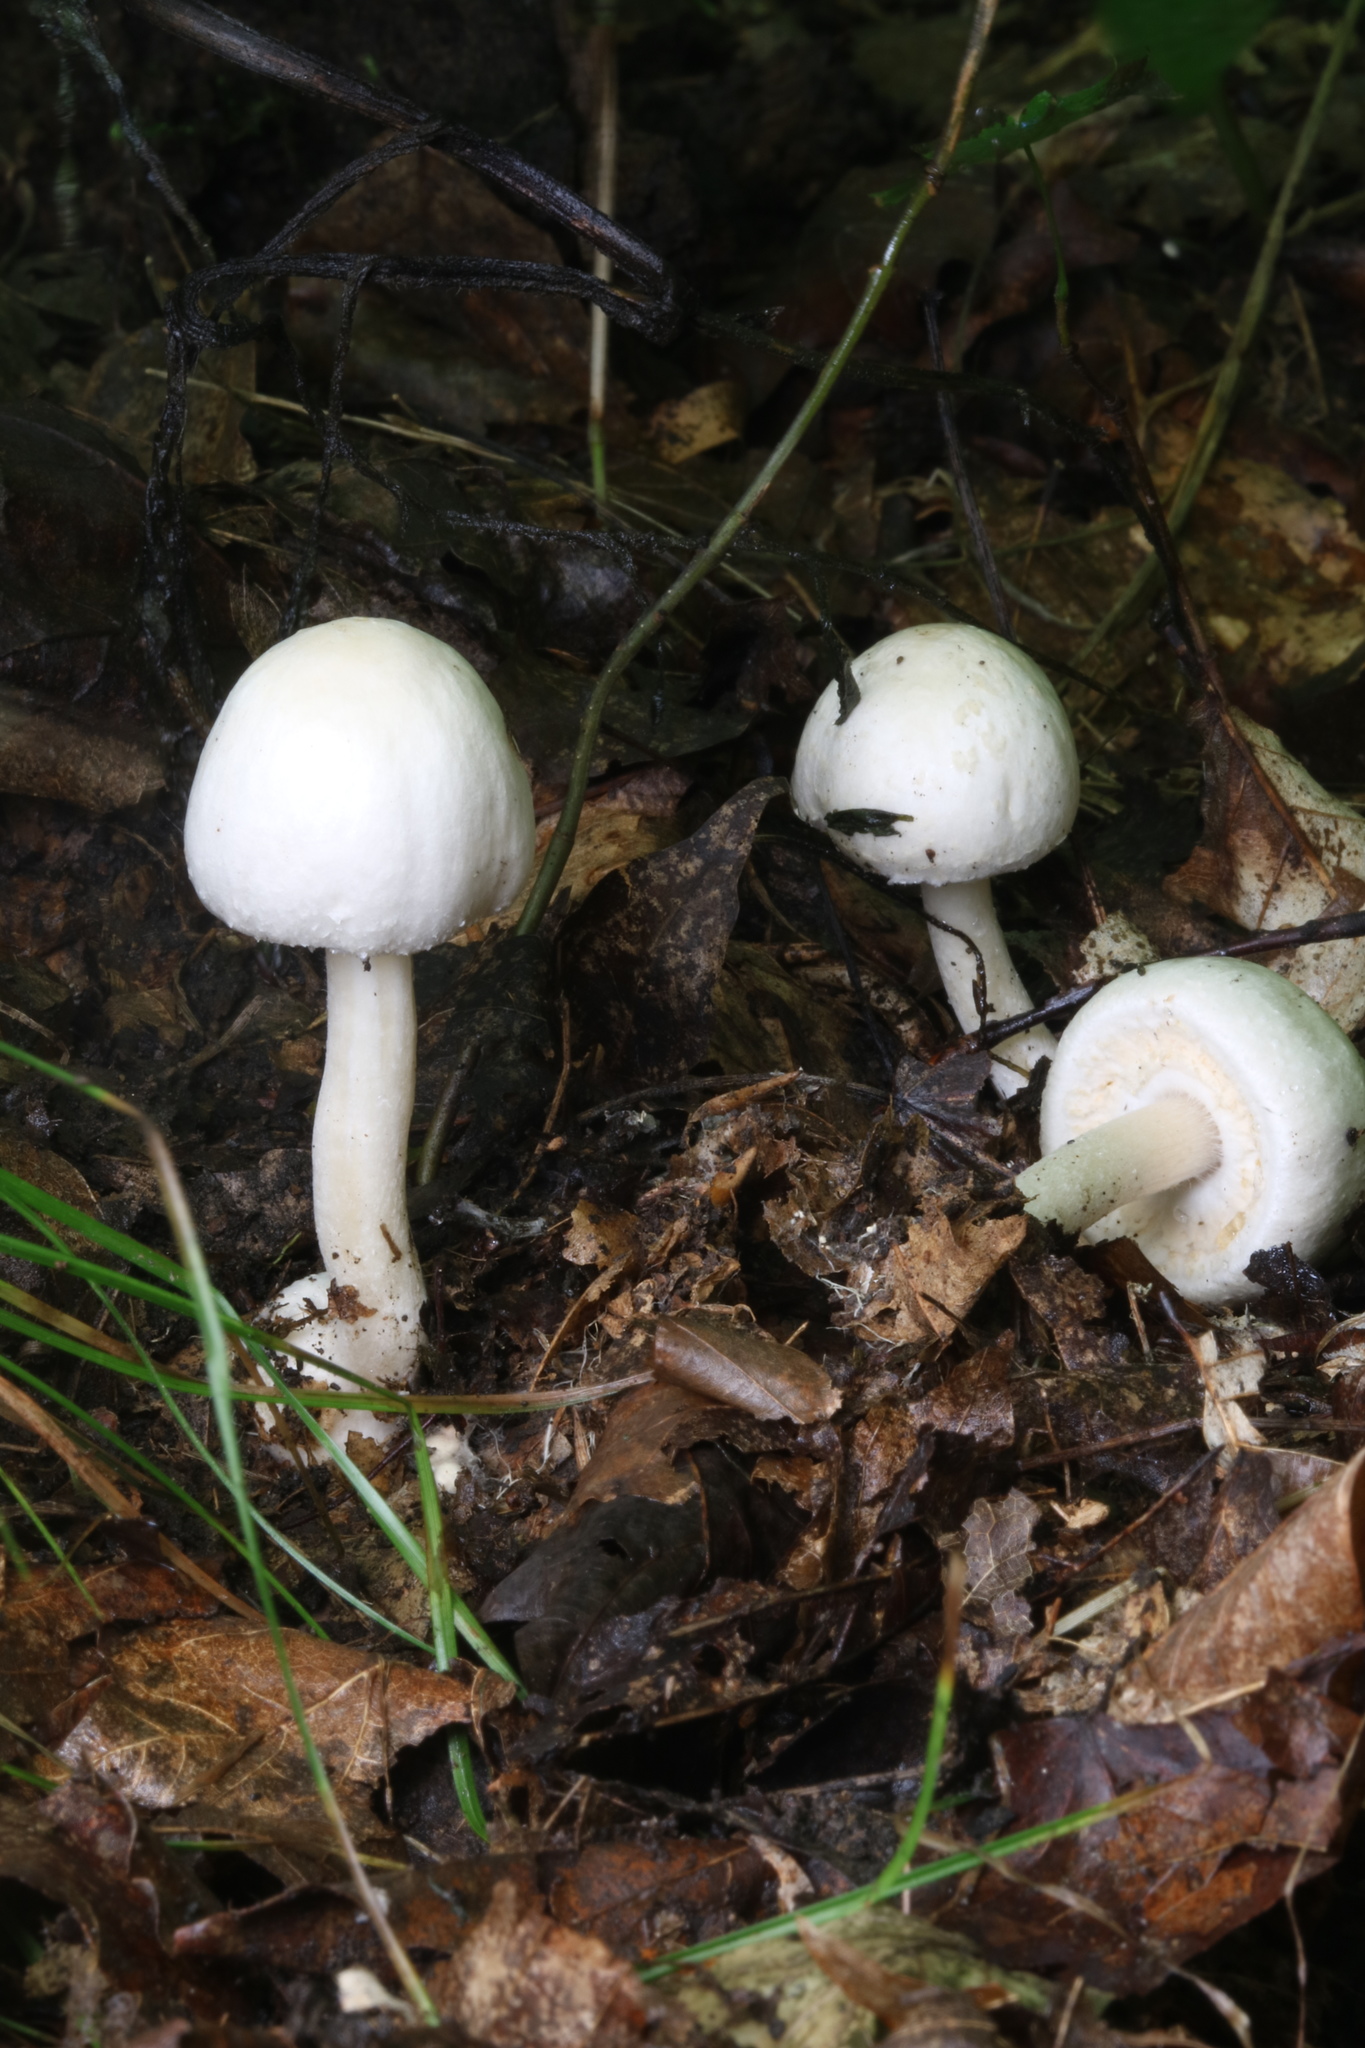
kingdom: Fungi
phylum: Basidiomycota
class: Agaricomycetes
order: Agaricales
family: Agaricaceae
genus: Agaricus
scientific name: Agaricus sylvicola
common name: Wood mushroom
